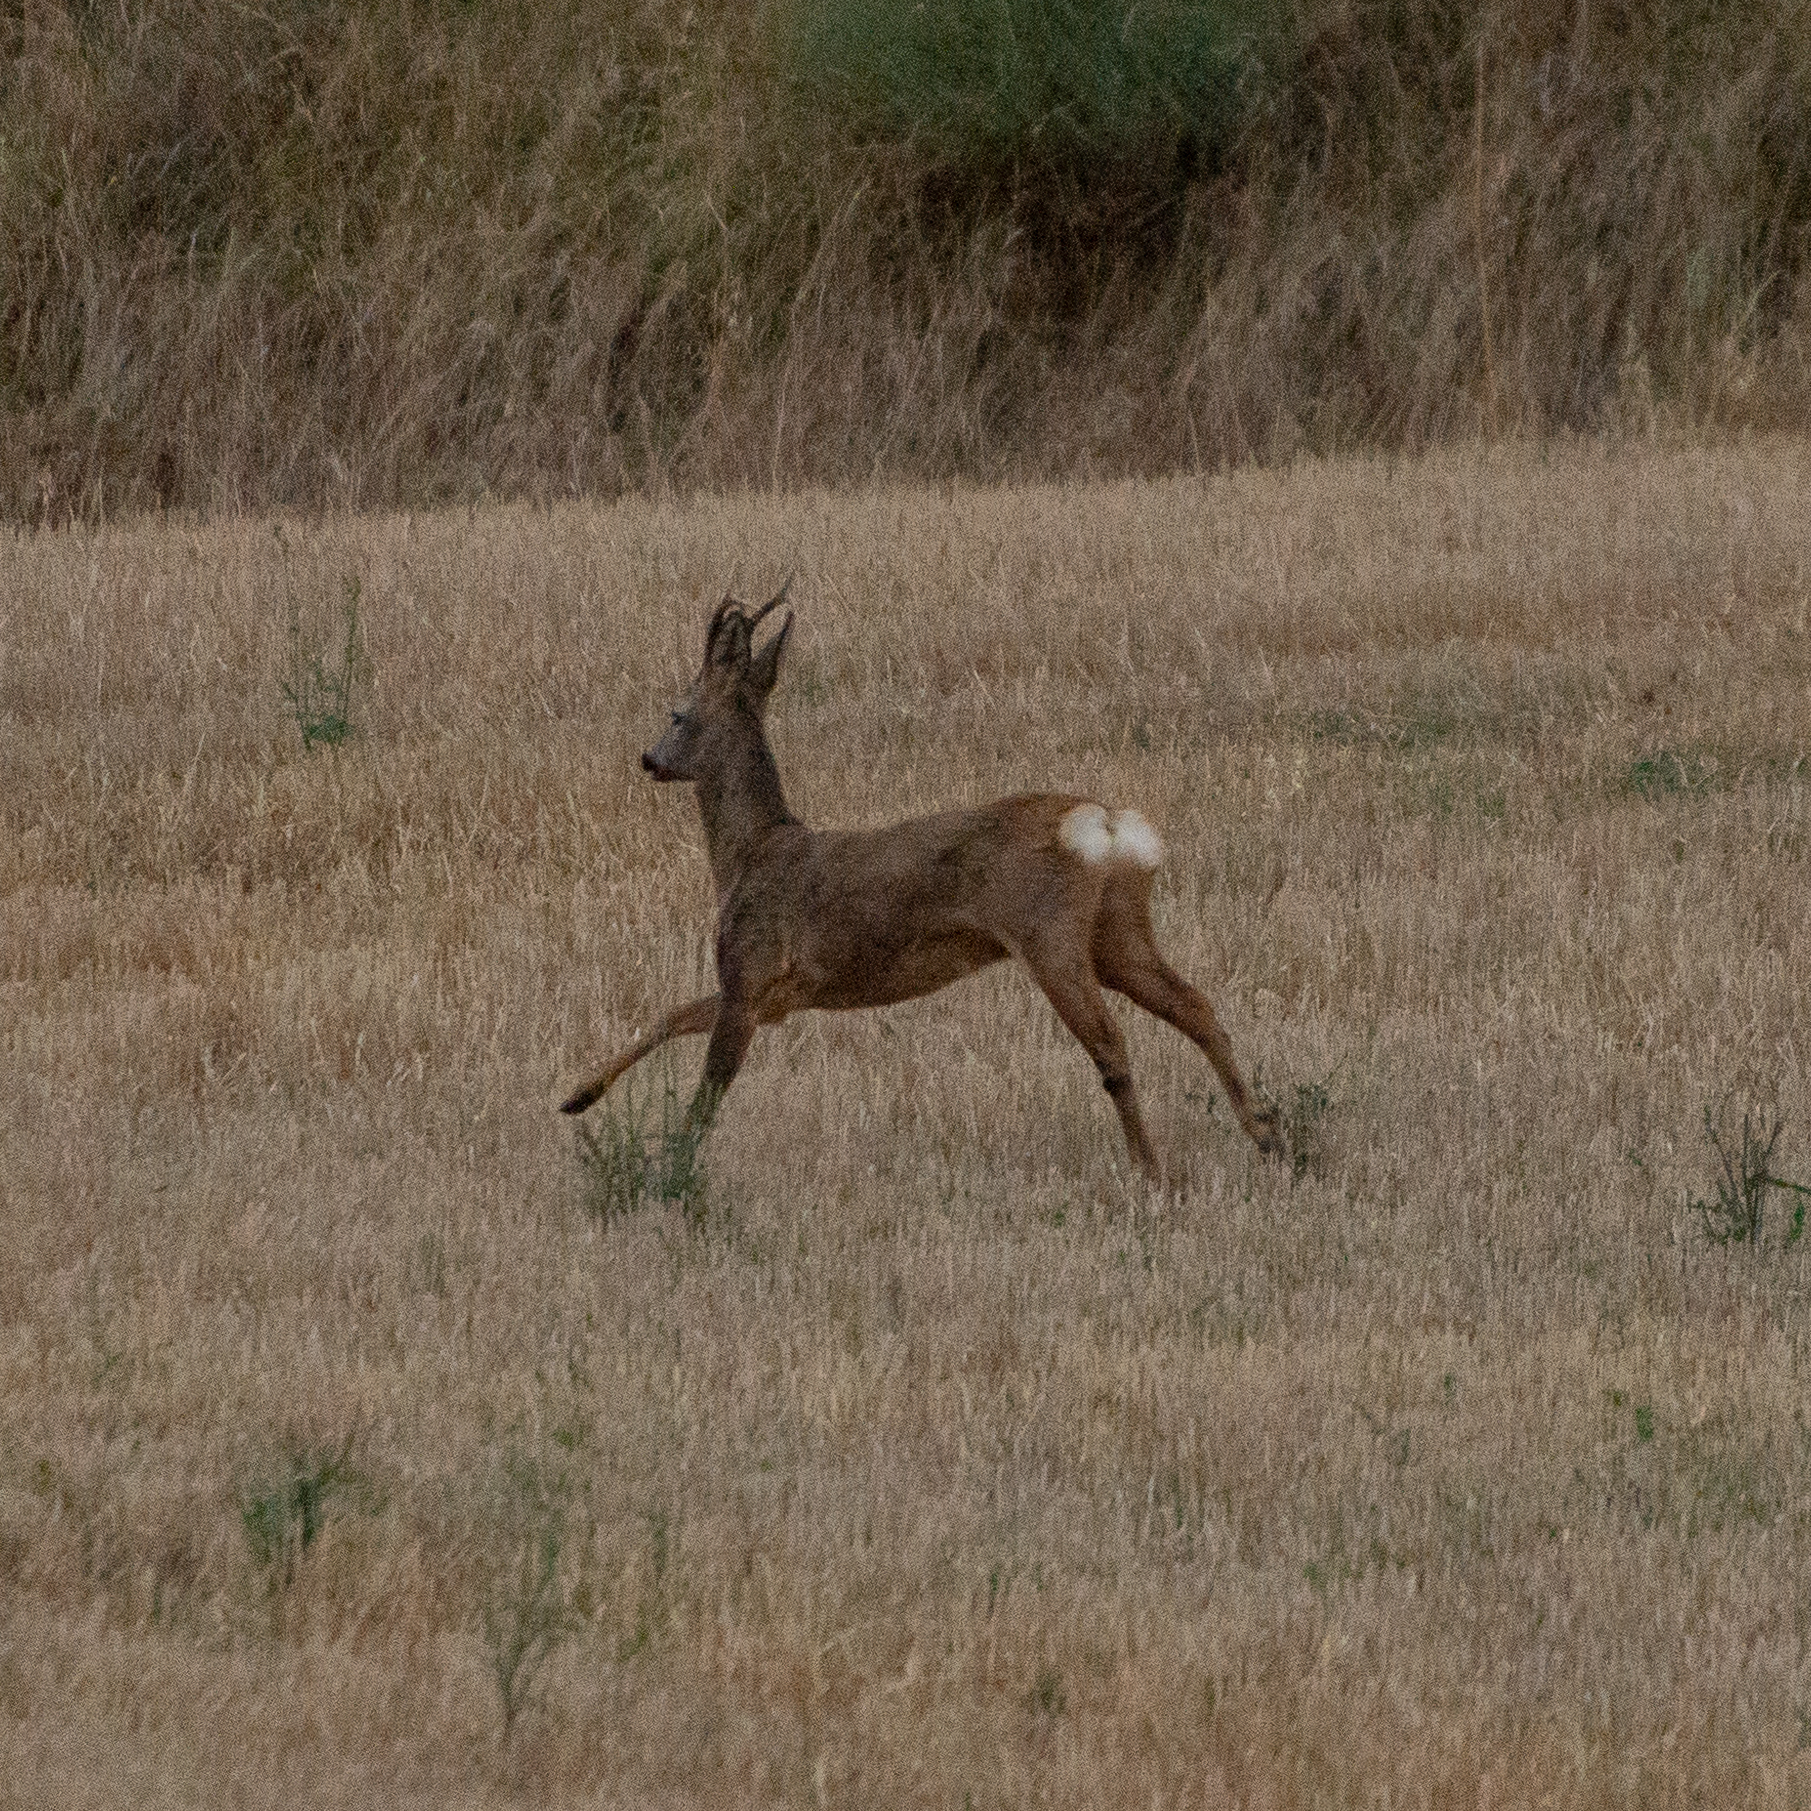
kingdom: Animalia
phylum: Chordata
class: Mammalia
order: Artiodactyla
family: Cervidae
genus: Capreolus
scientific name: Capreolus capreolus
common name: Western roe deer
